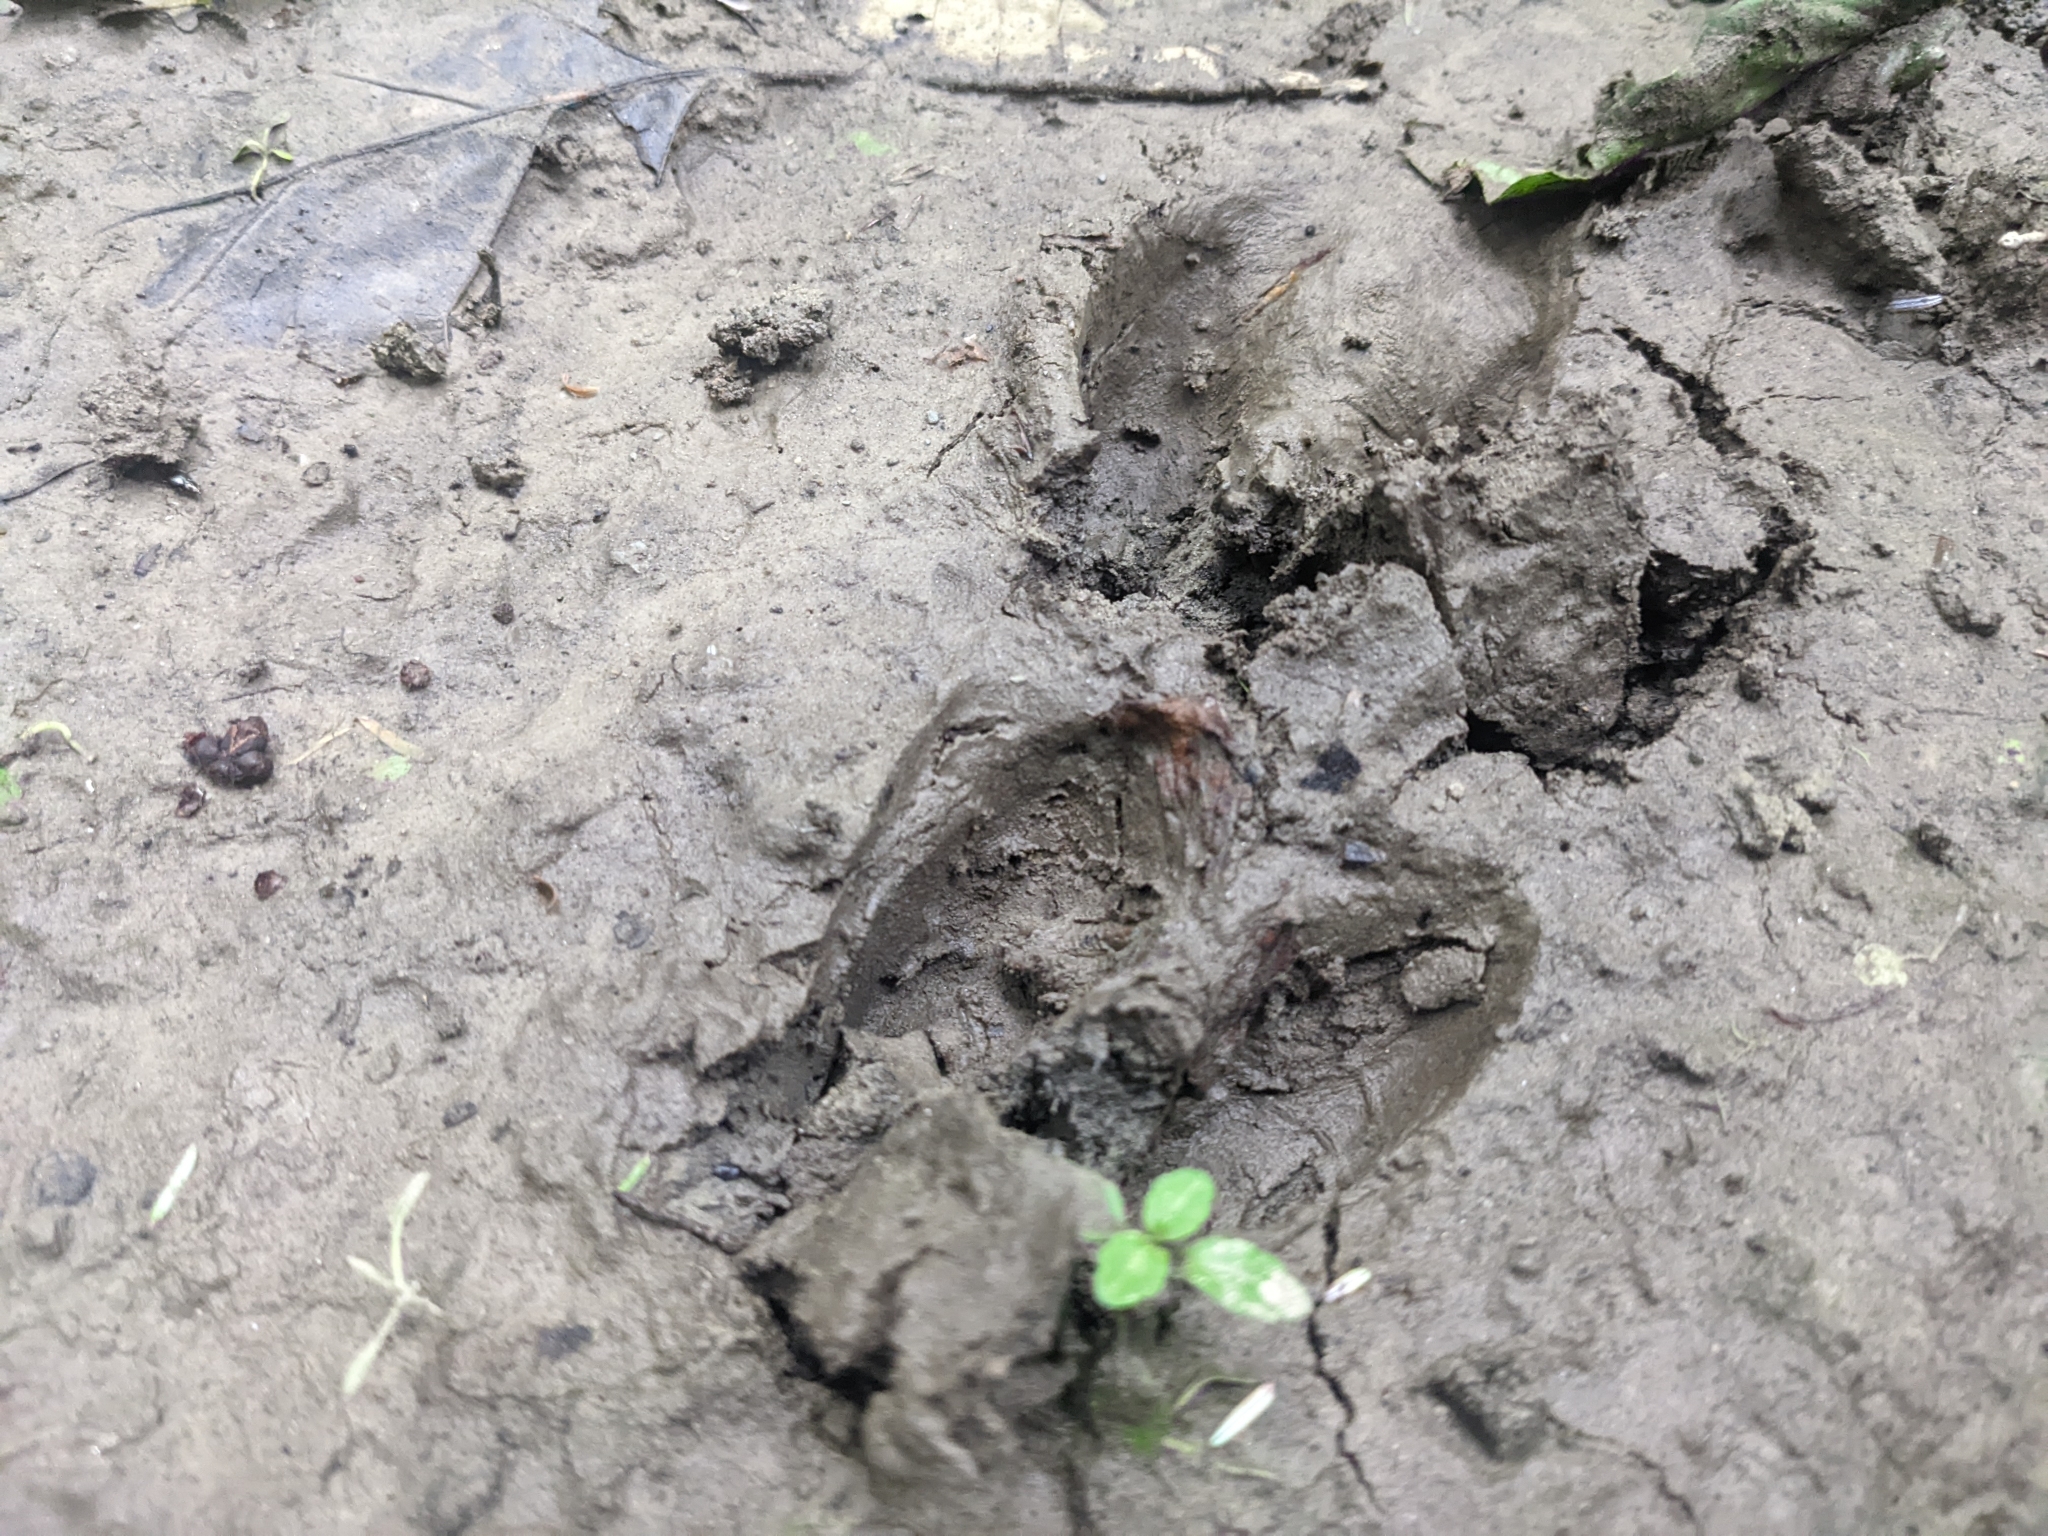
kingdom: Animalia
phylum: Chordata
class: Mammalia
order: Carnivora
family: Ursidae
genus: Ursus
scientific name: Ursus americanus
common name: American black bear
